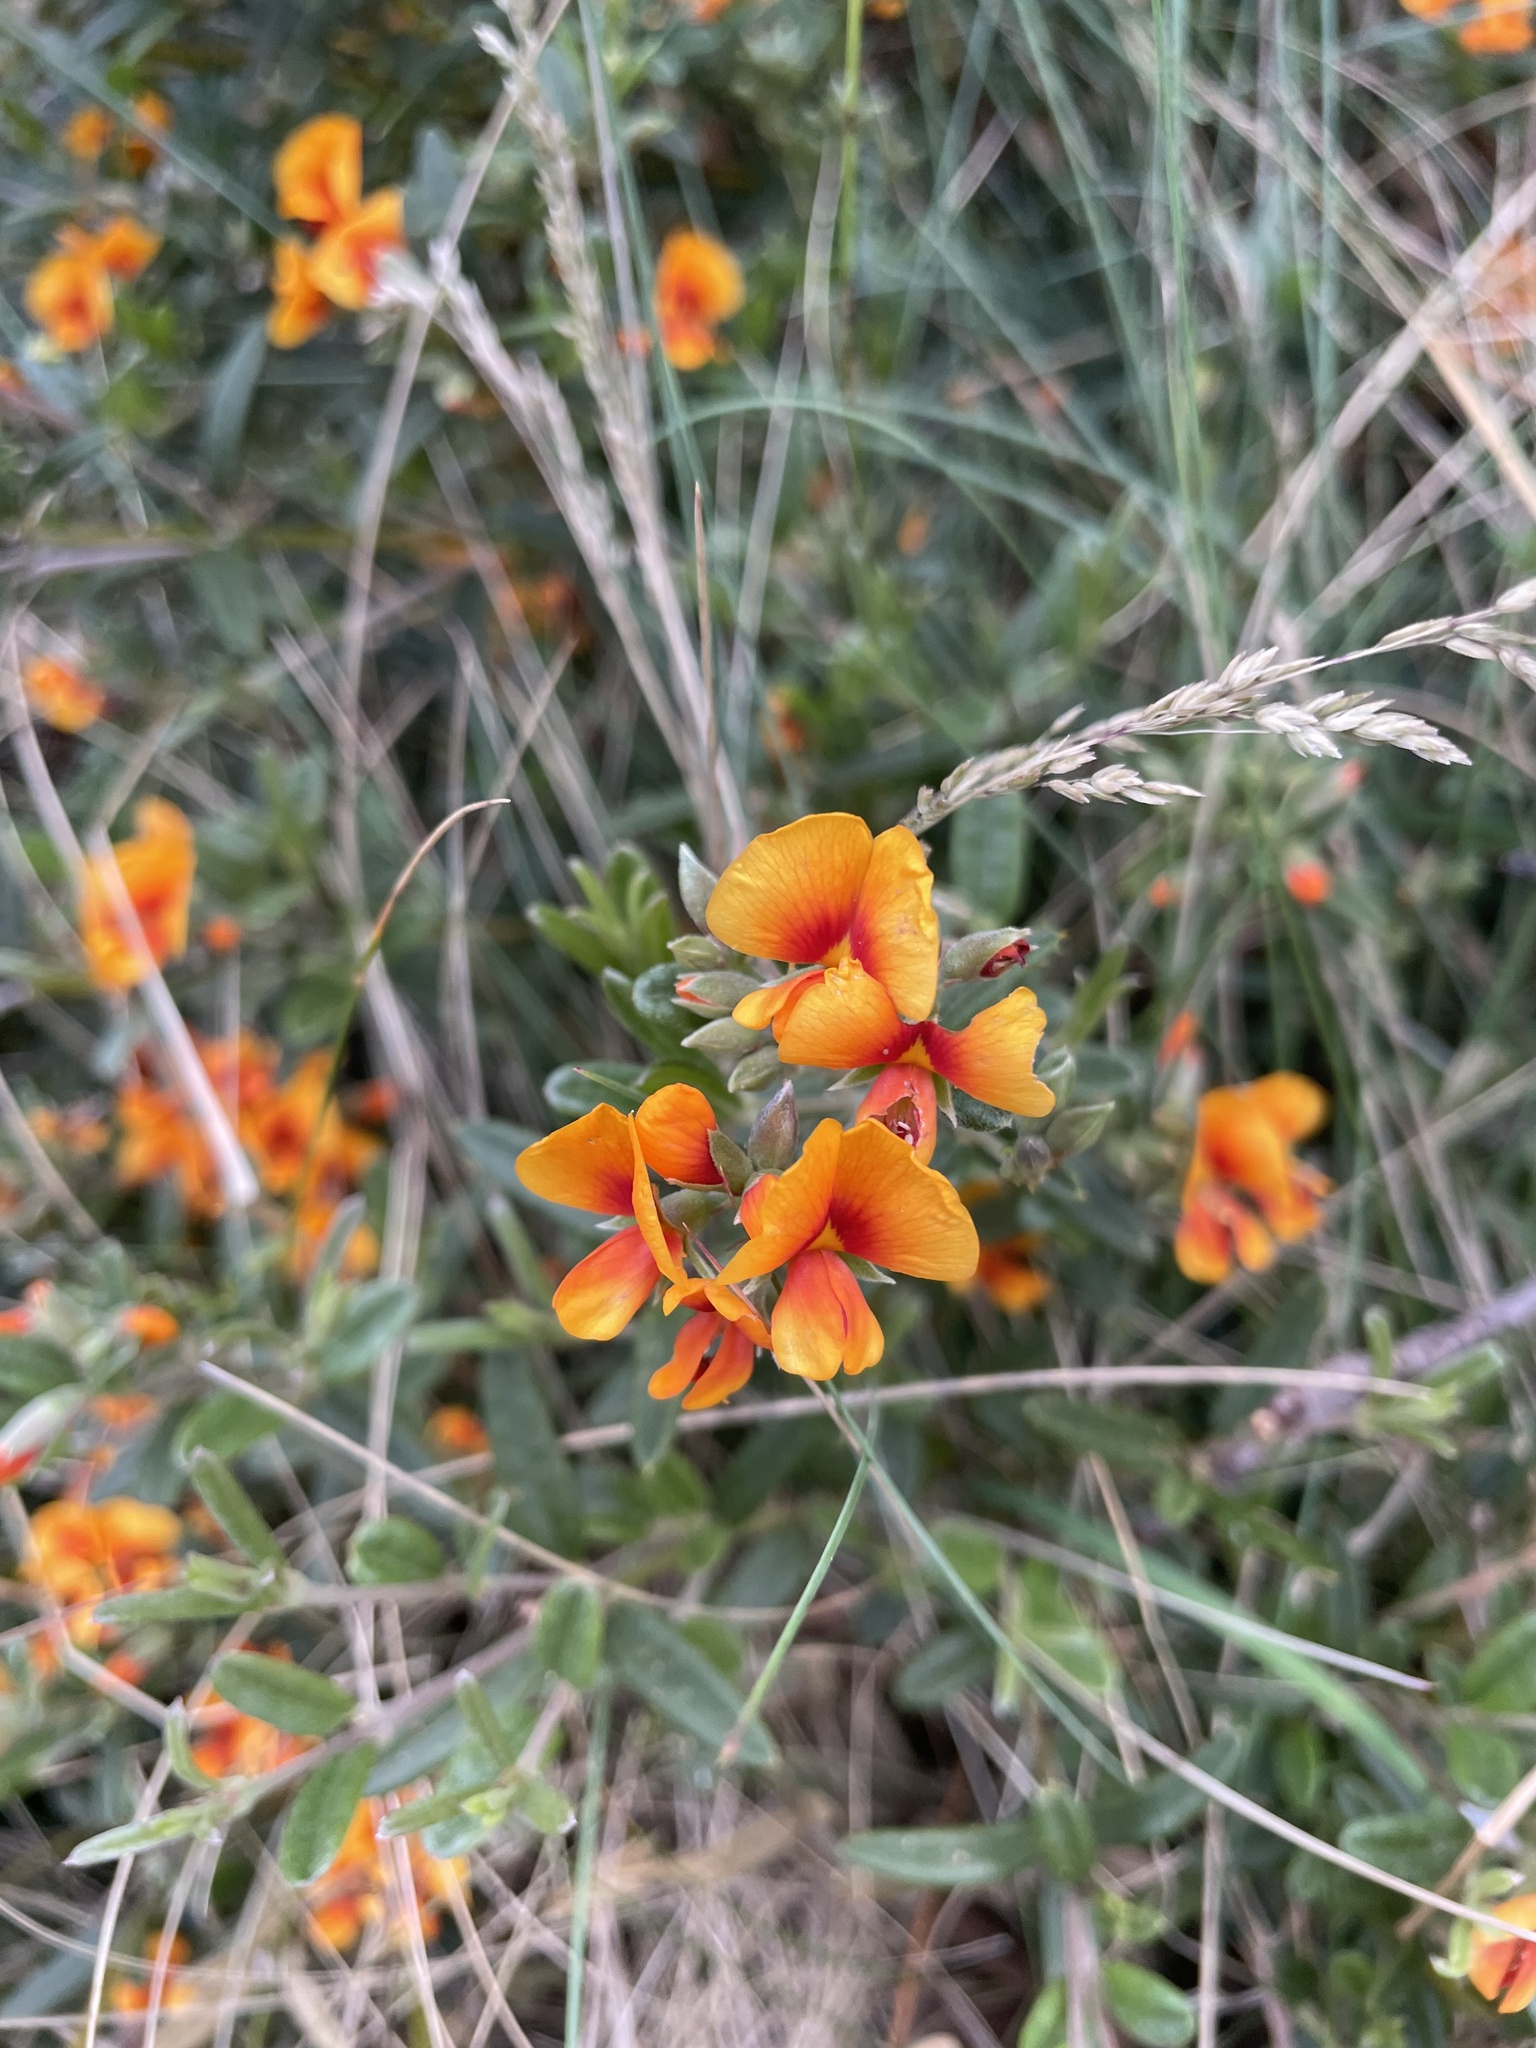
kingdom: Plantae
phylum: Tracheophyta
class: Magnoliopsida
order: Fabales
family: Fabaceae
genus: Podolobium
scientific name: Podolobium alpestre
